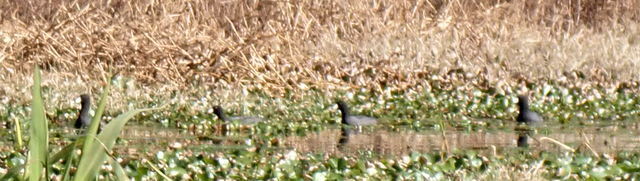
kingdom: Animalia
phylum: Chordata
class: Aves
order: Gruiformes
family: Rallidae
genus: Fulica
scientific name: Fulica americana
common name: American coot
